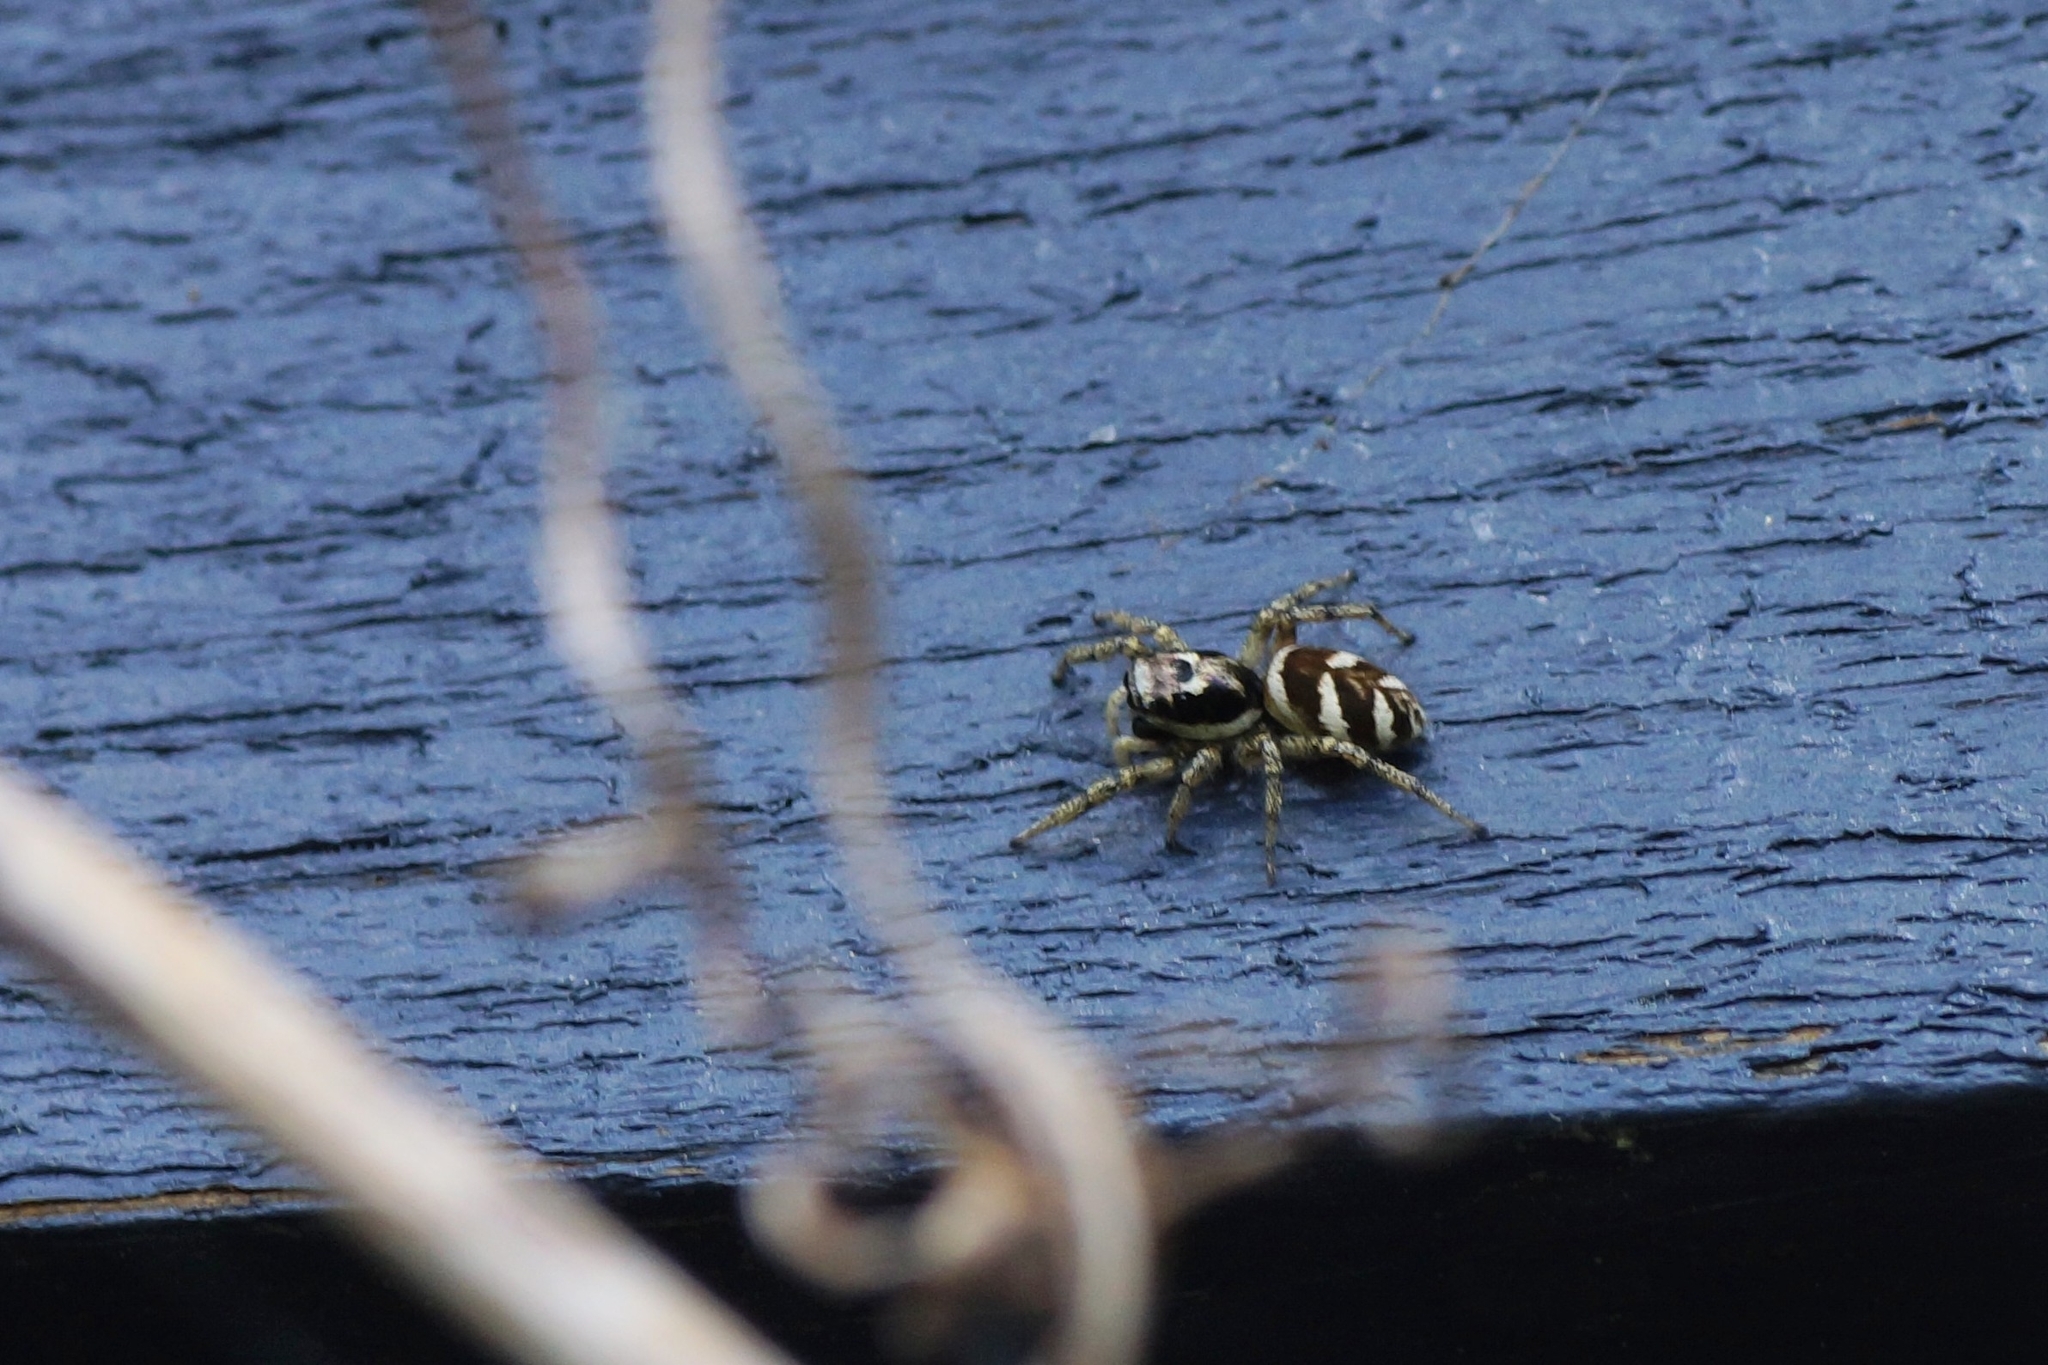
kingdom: Animalia
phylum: Arthropoda
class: Arachnida
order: Araneae
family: Salticidae
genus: Salticus
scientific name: Salticus scenicus
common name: Zebra jumper
